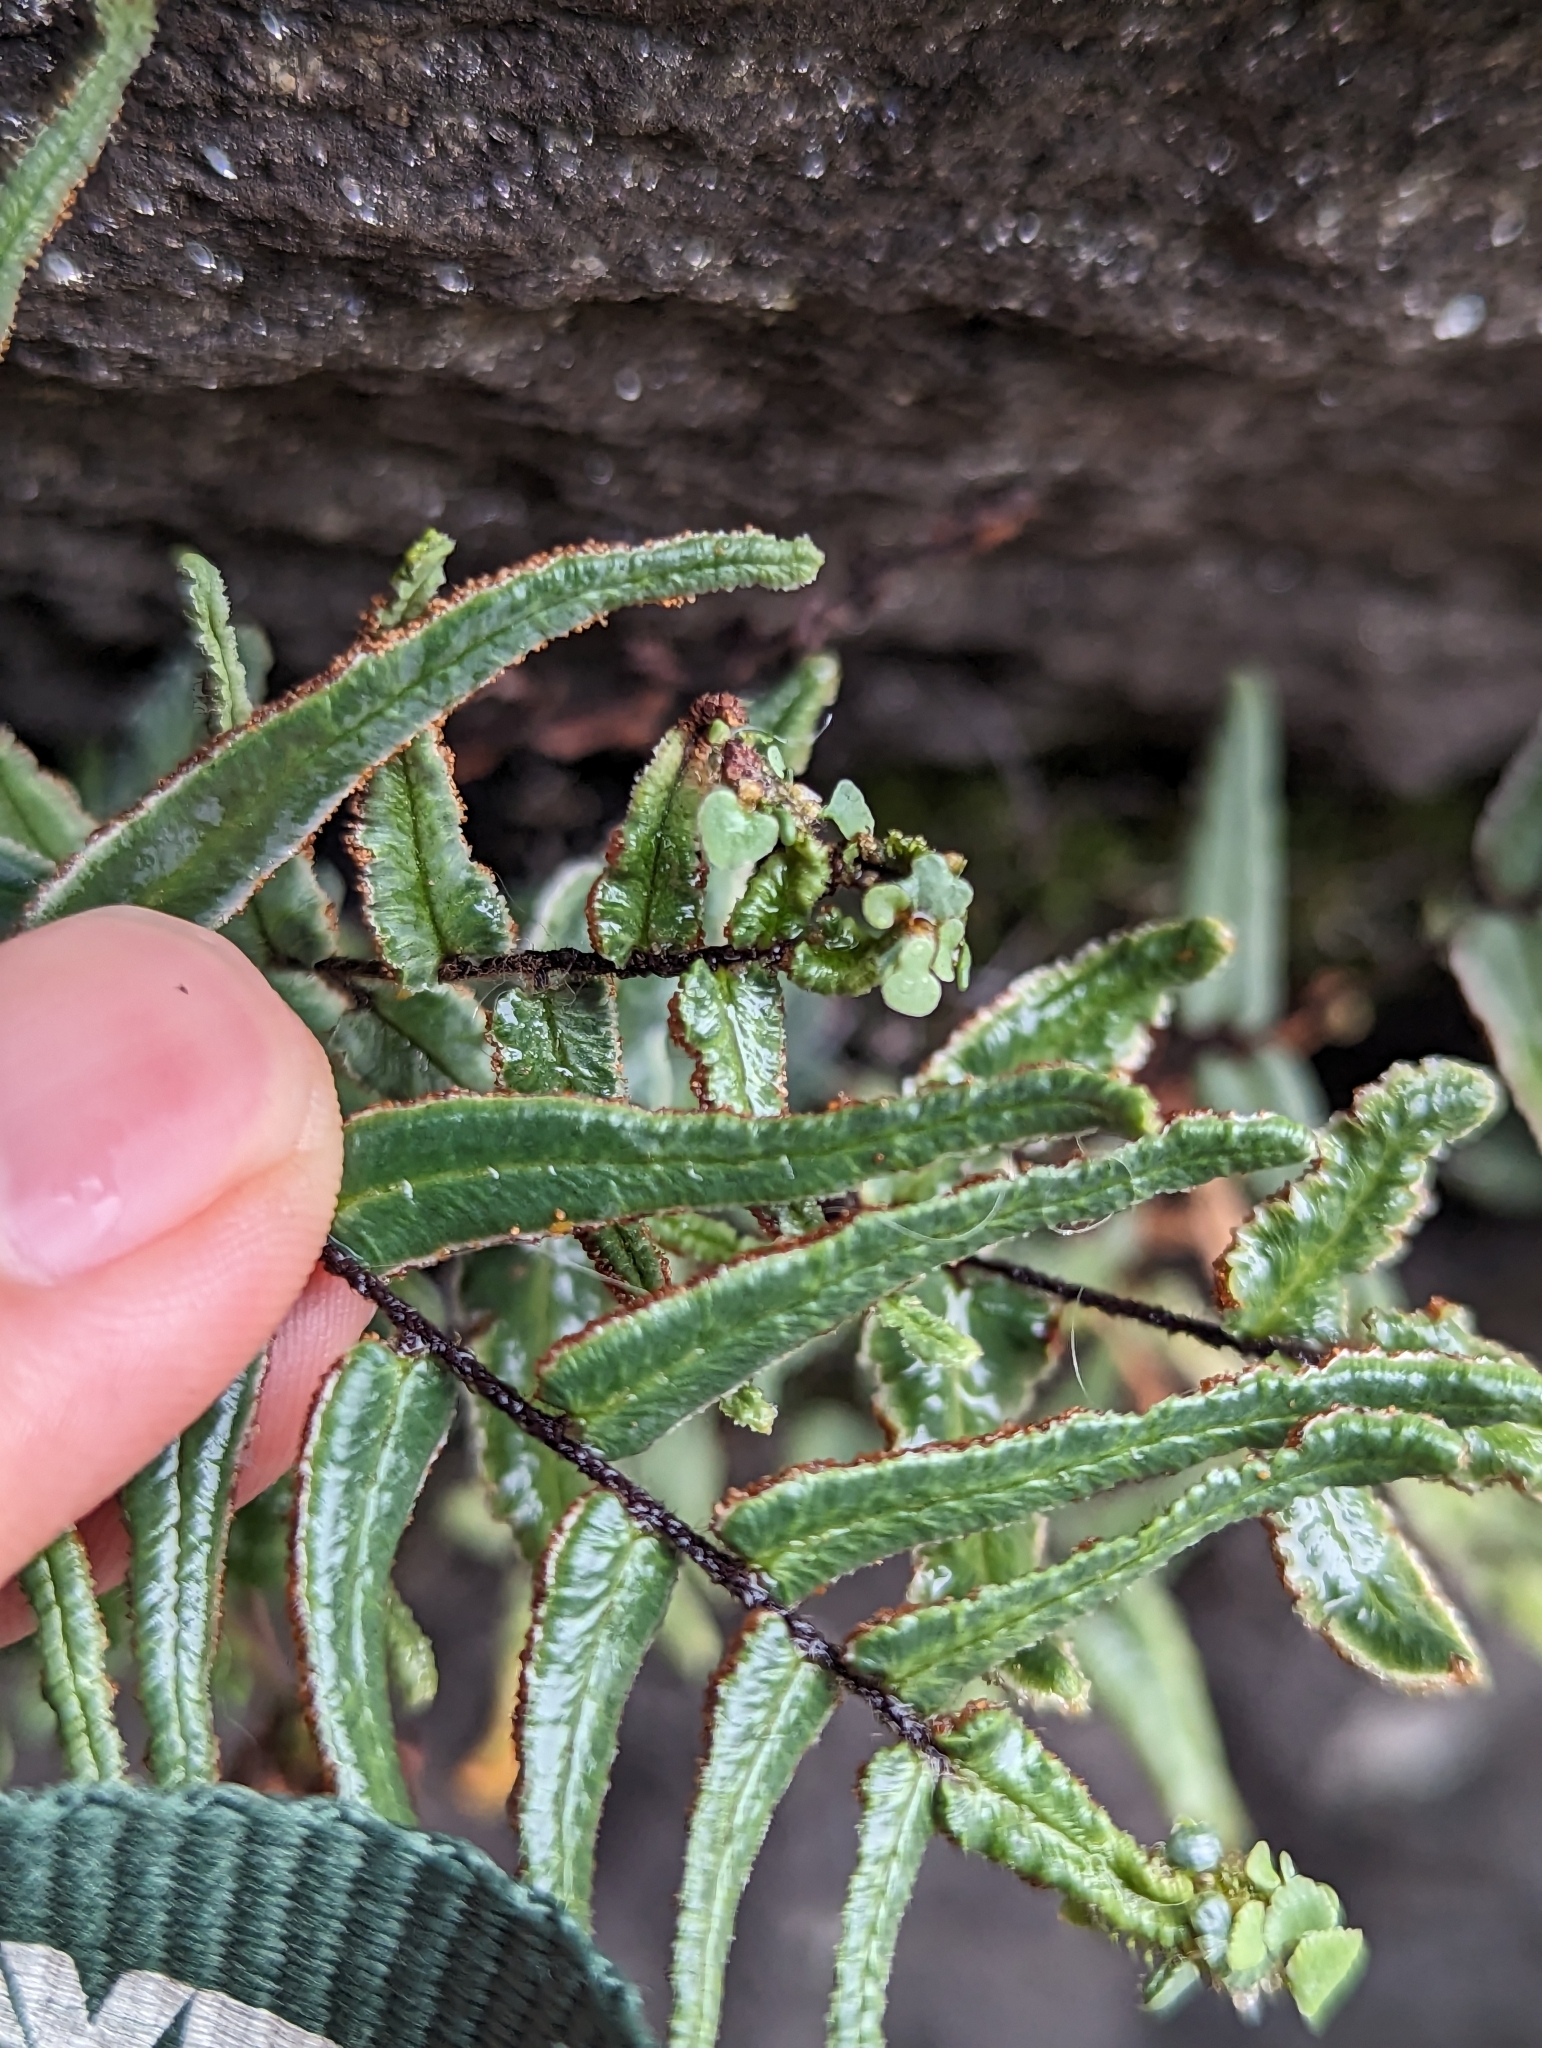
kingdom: Plantae
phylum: Tracheophyta
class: Polypodiopsida
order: Polypodiales
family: Pteridaceae
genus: Pellaea
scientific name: Pellaea atropurpurea
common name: Hairy cliffbrake
